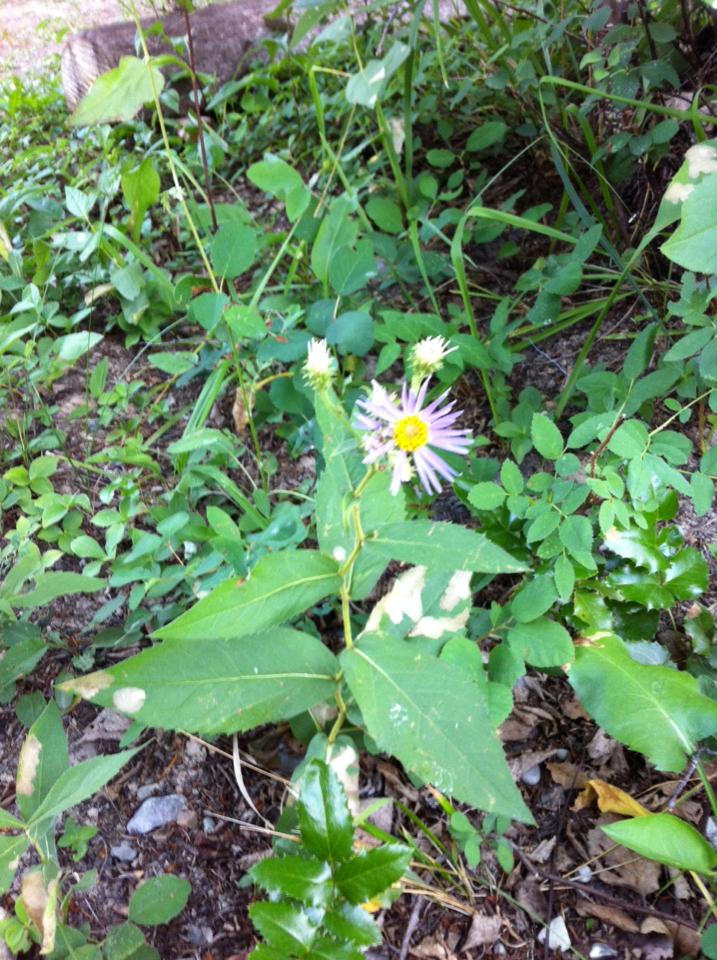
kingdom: Plantae
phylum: Tracheophyta
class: Magnoliopsida
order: Asterales
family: Asteraceae
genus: Eurybia
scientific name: Eurybia conspicua
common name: Showy aster
